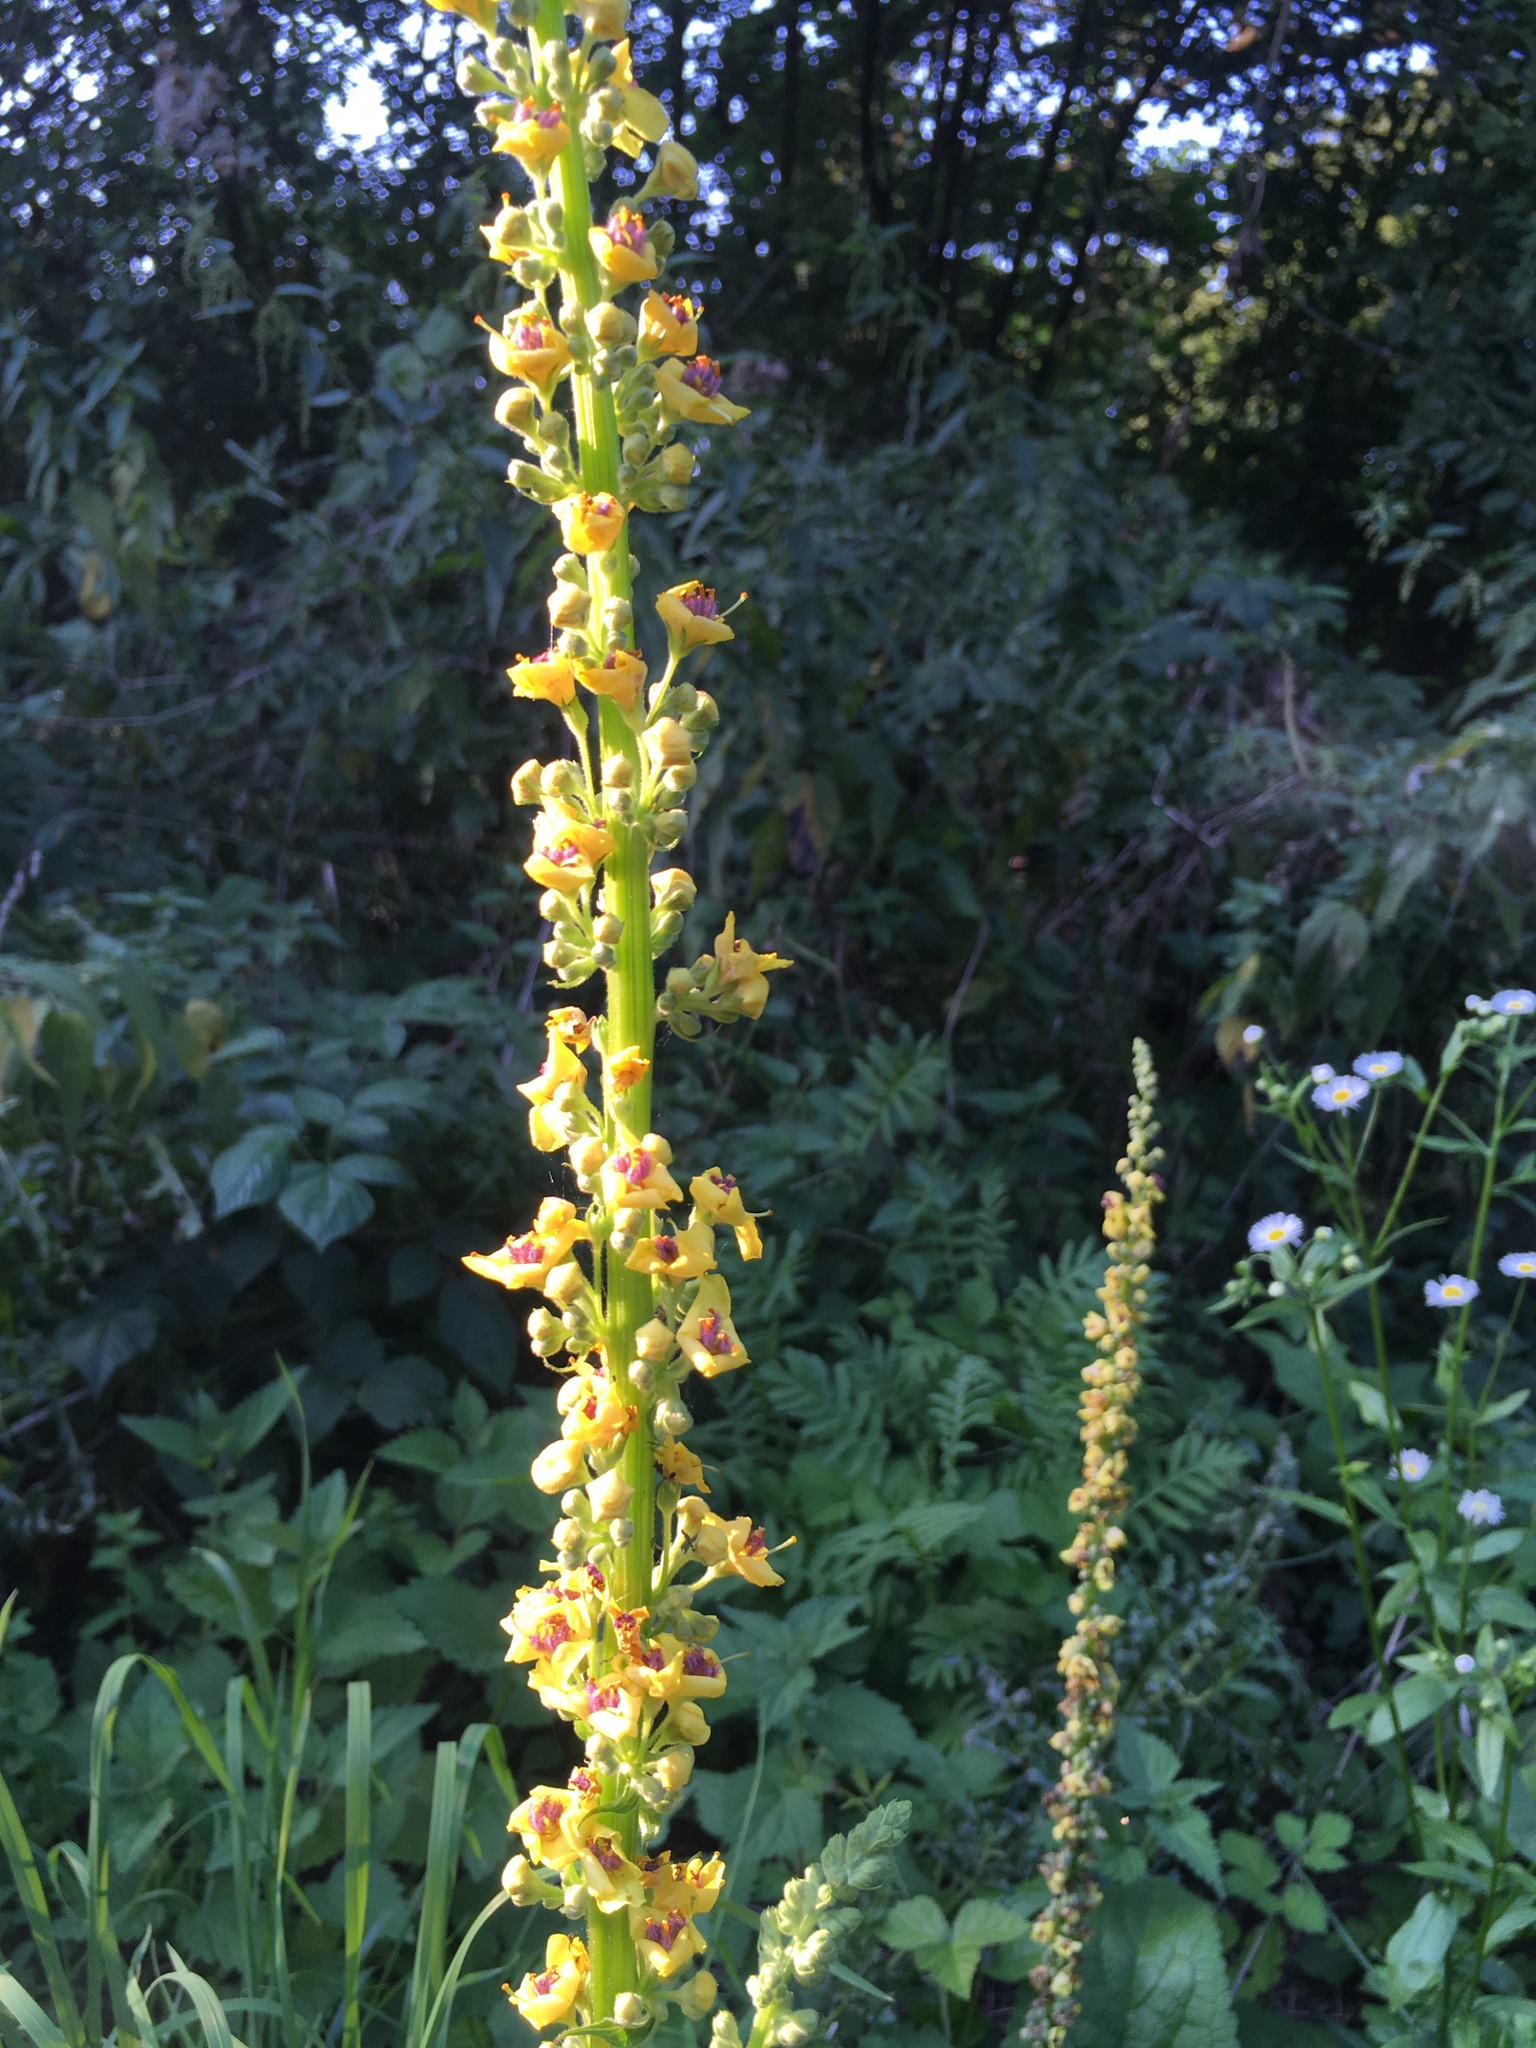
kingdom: Plantae
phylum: Tracheophyta
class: Magnoliopsida
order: Lamiales
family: Scrophulariaceae
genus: Verbascum
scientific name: Verbascum nigrum
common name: Dark mullein
